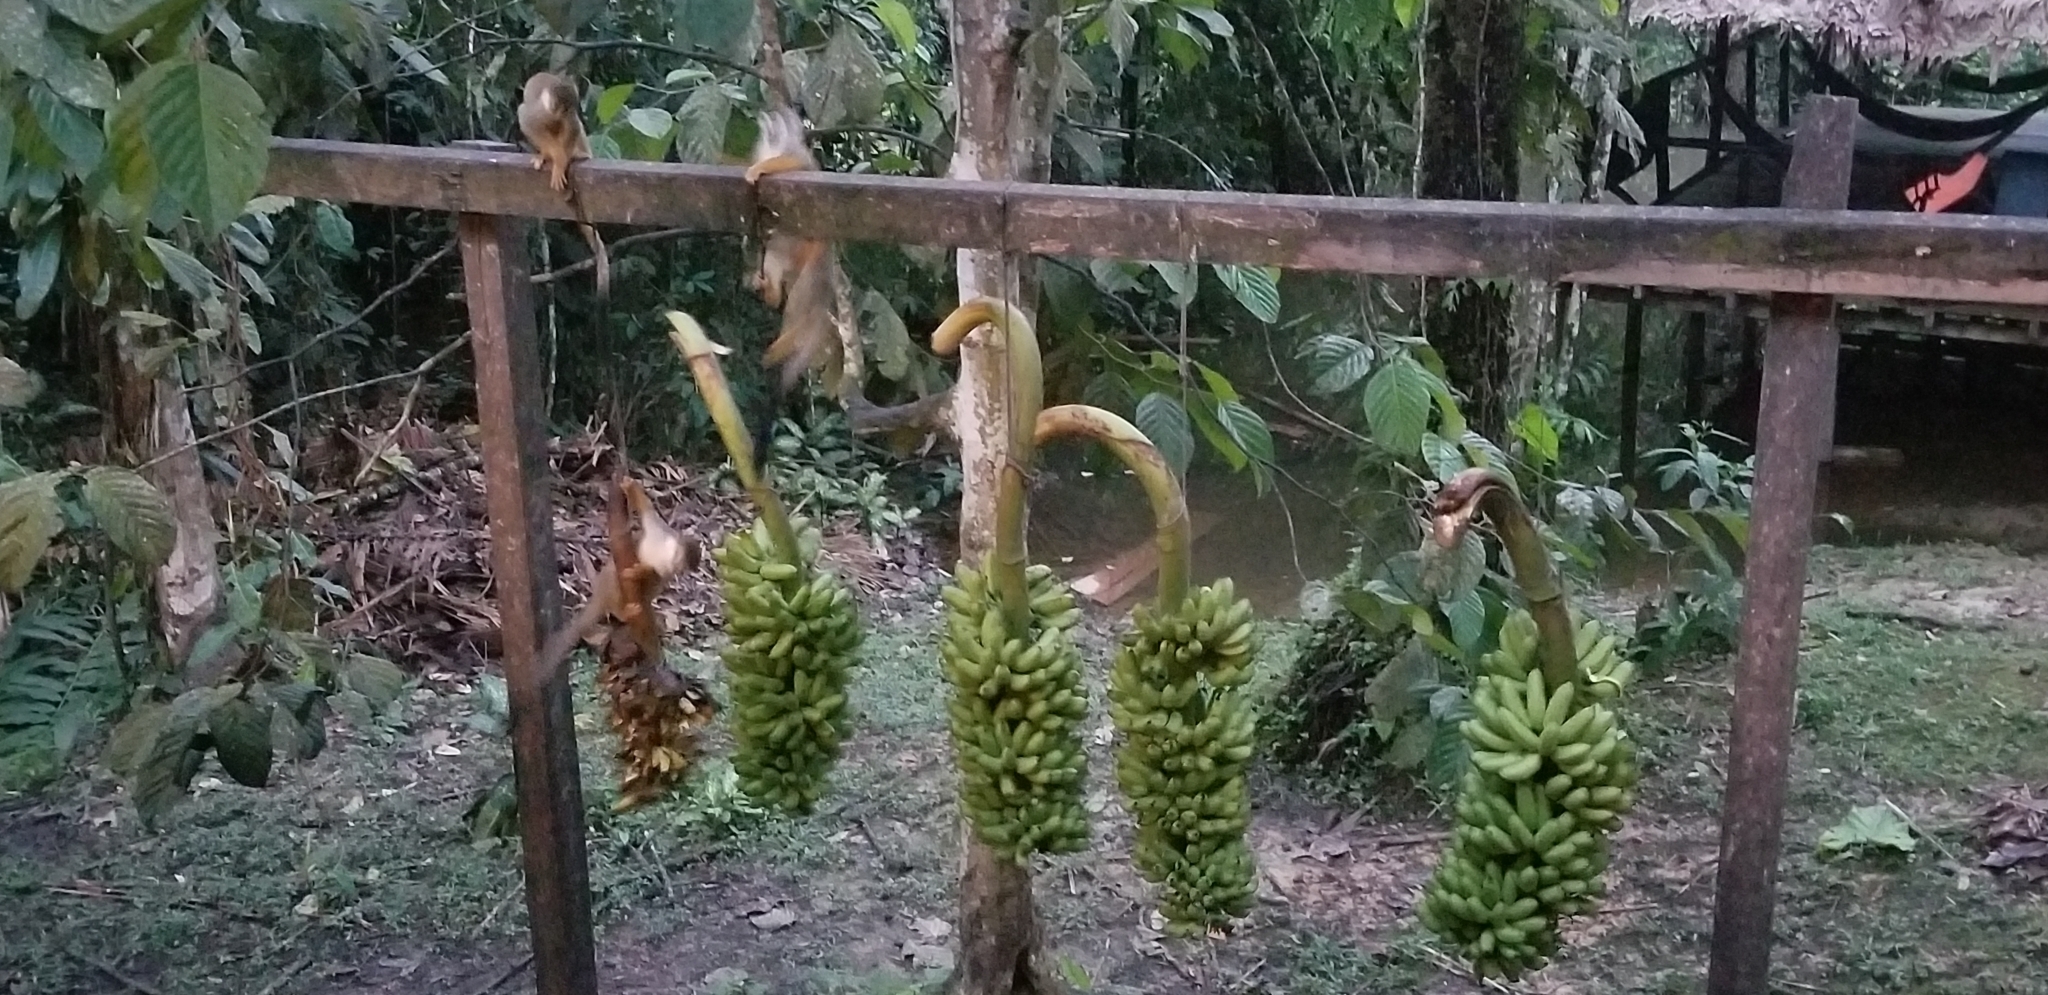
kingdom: Animalia
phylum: Chordata
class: Mammalia
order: Primates
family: Cebidae
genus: Saimiri
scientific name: Saimiri cassiquiarensis
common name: Humboldt’s squirrel monkey
